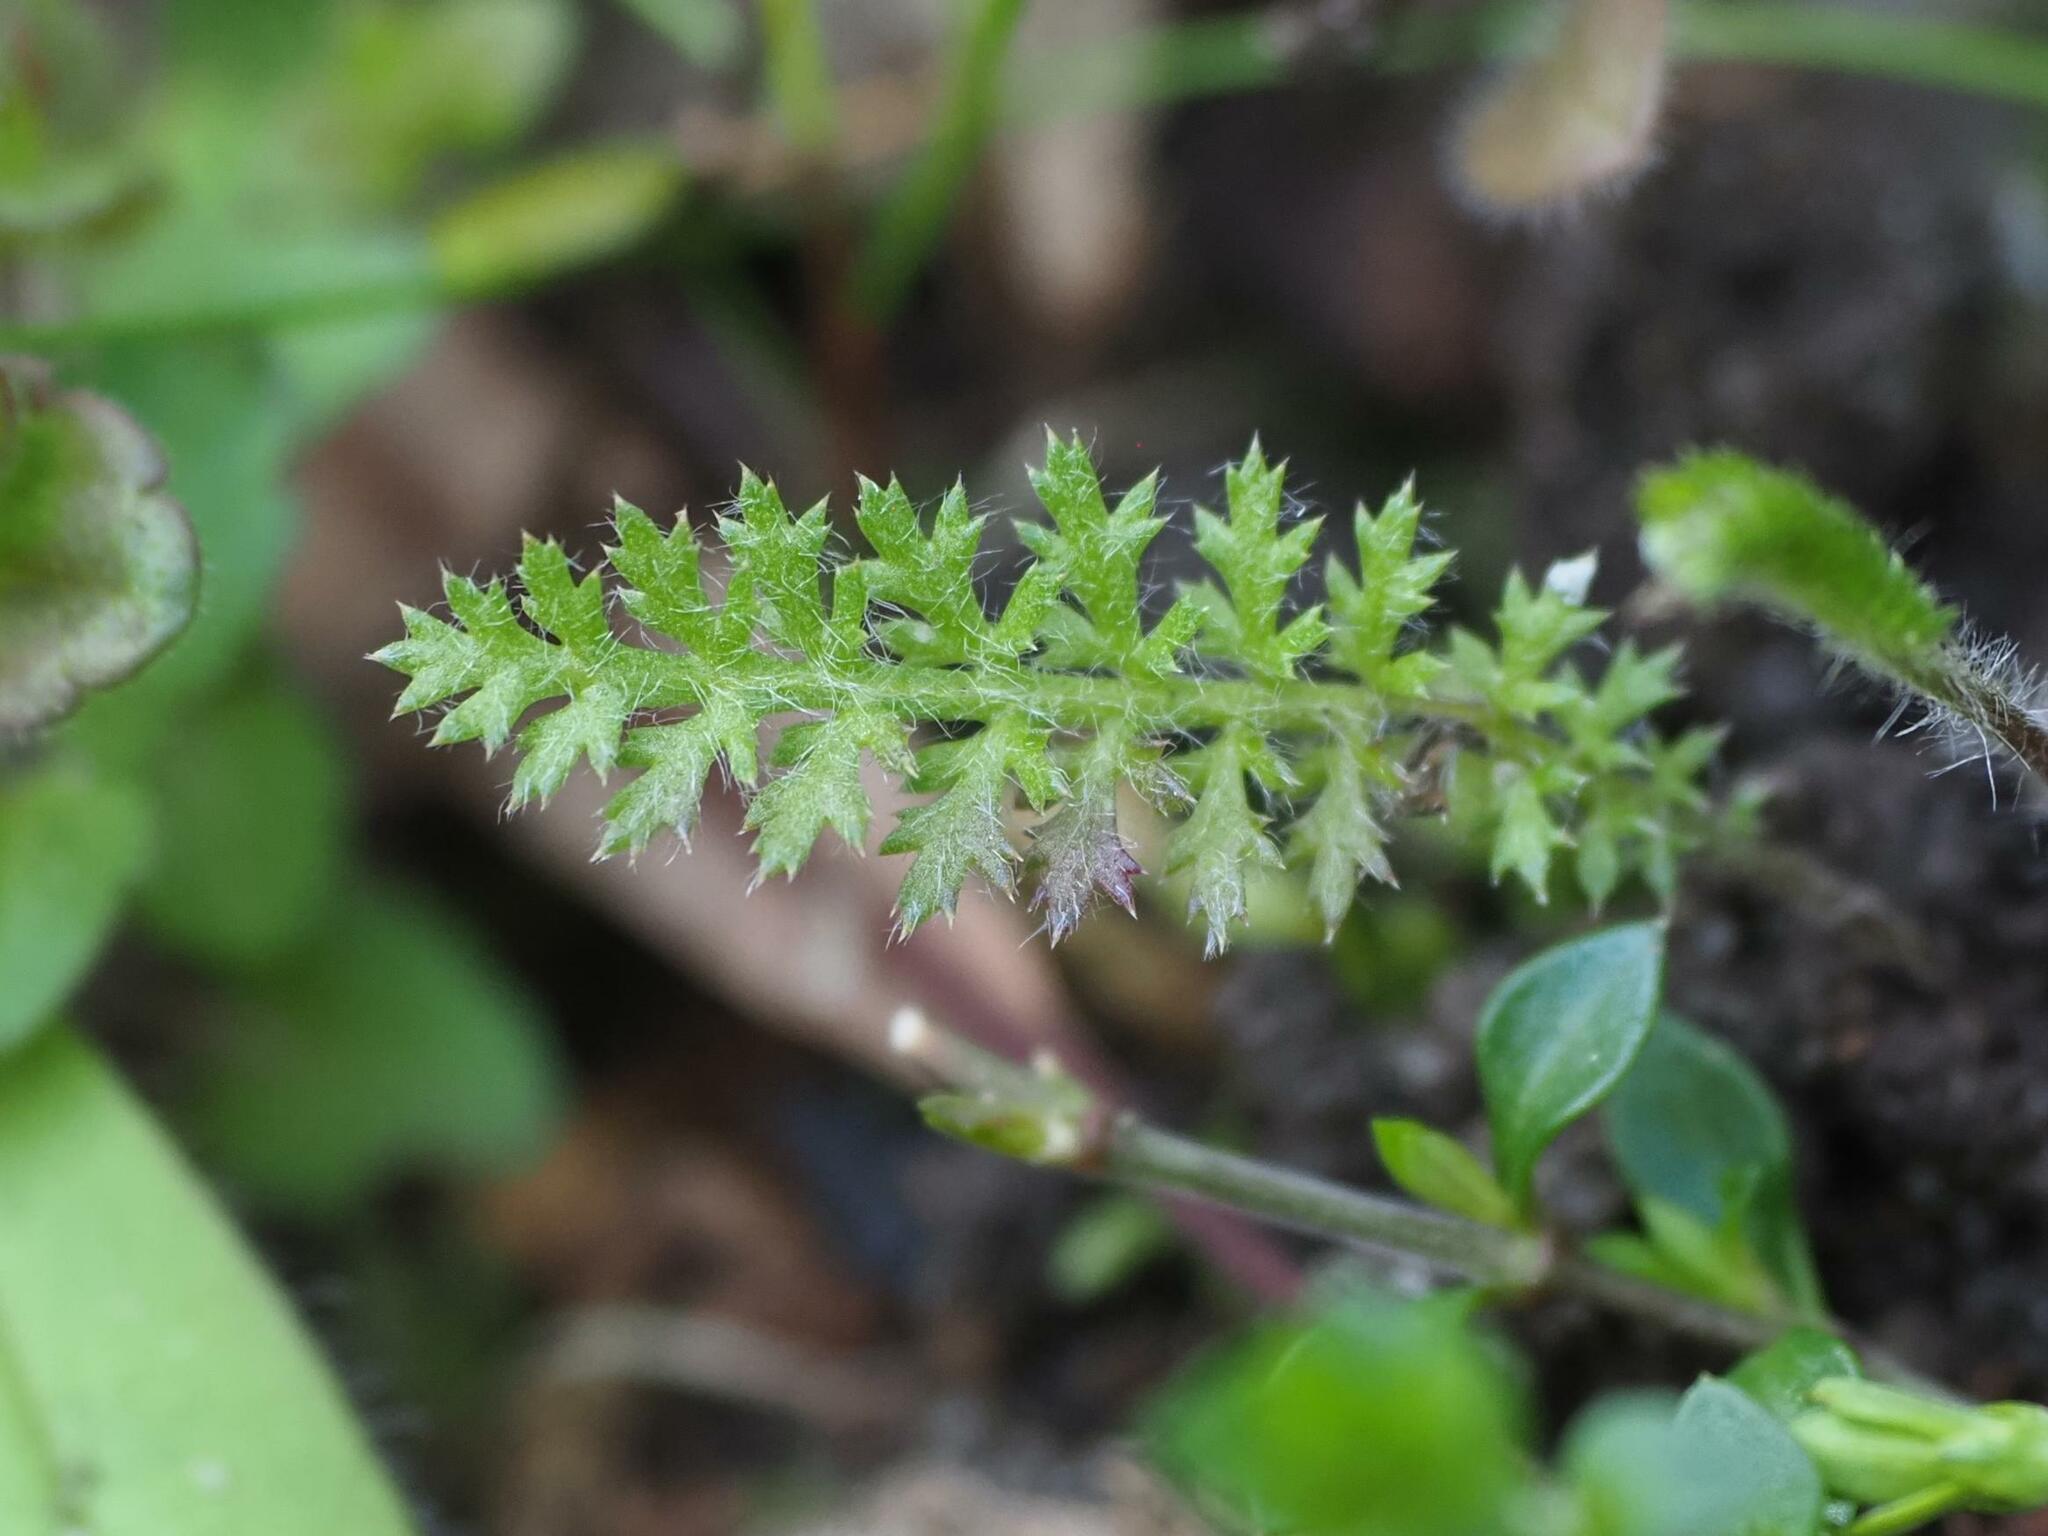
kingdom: Plantae
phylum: Tracheophyta
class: Magnoliopsida
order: Asterales
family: Asteraceae
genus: Achillea
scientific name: Achillea millefolium
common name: Yarrow
